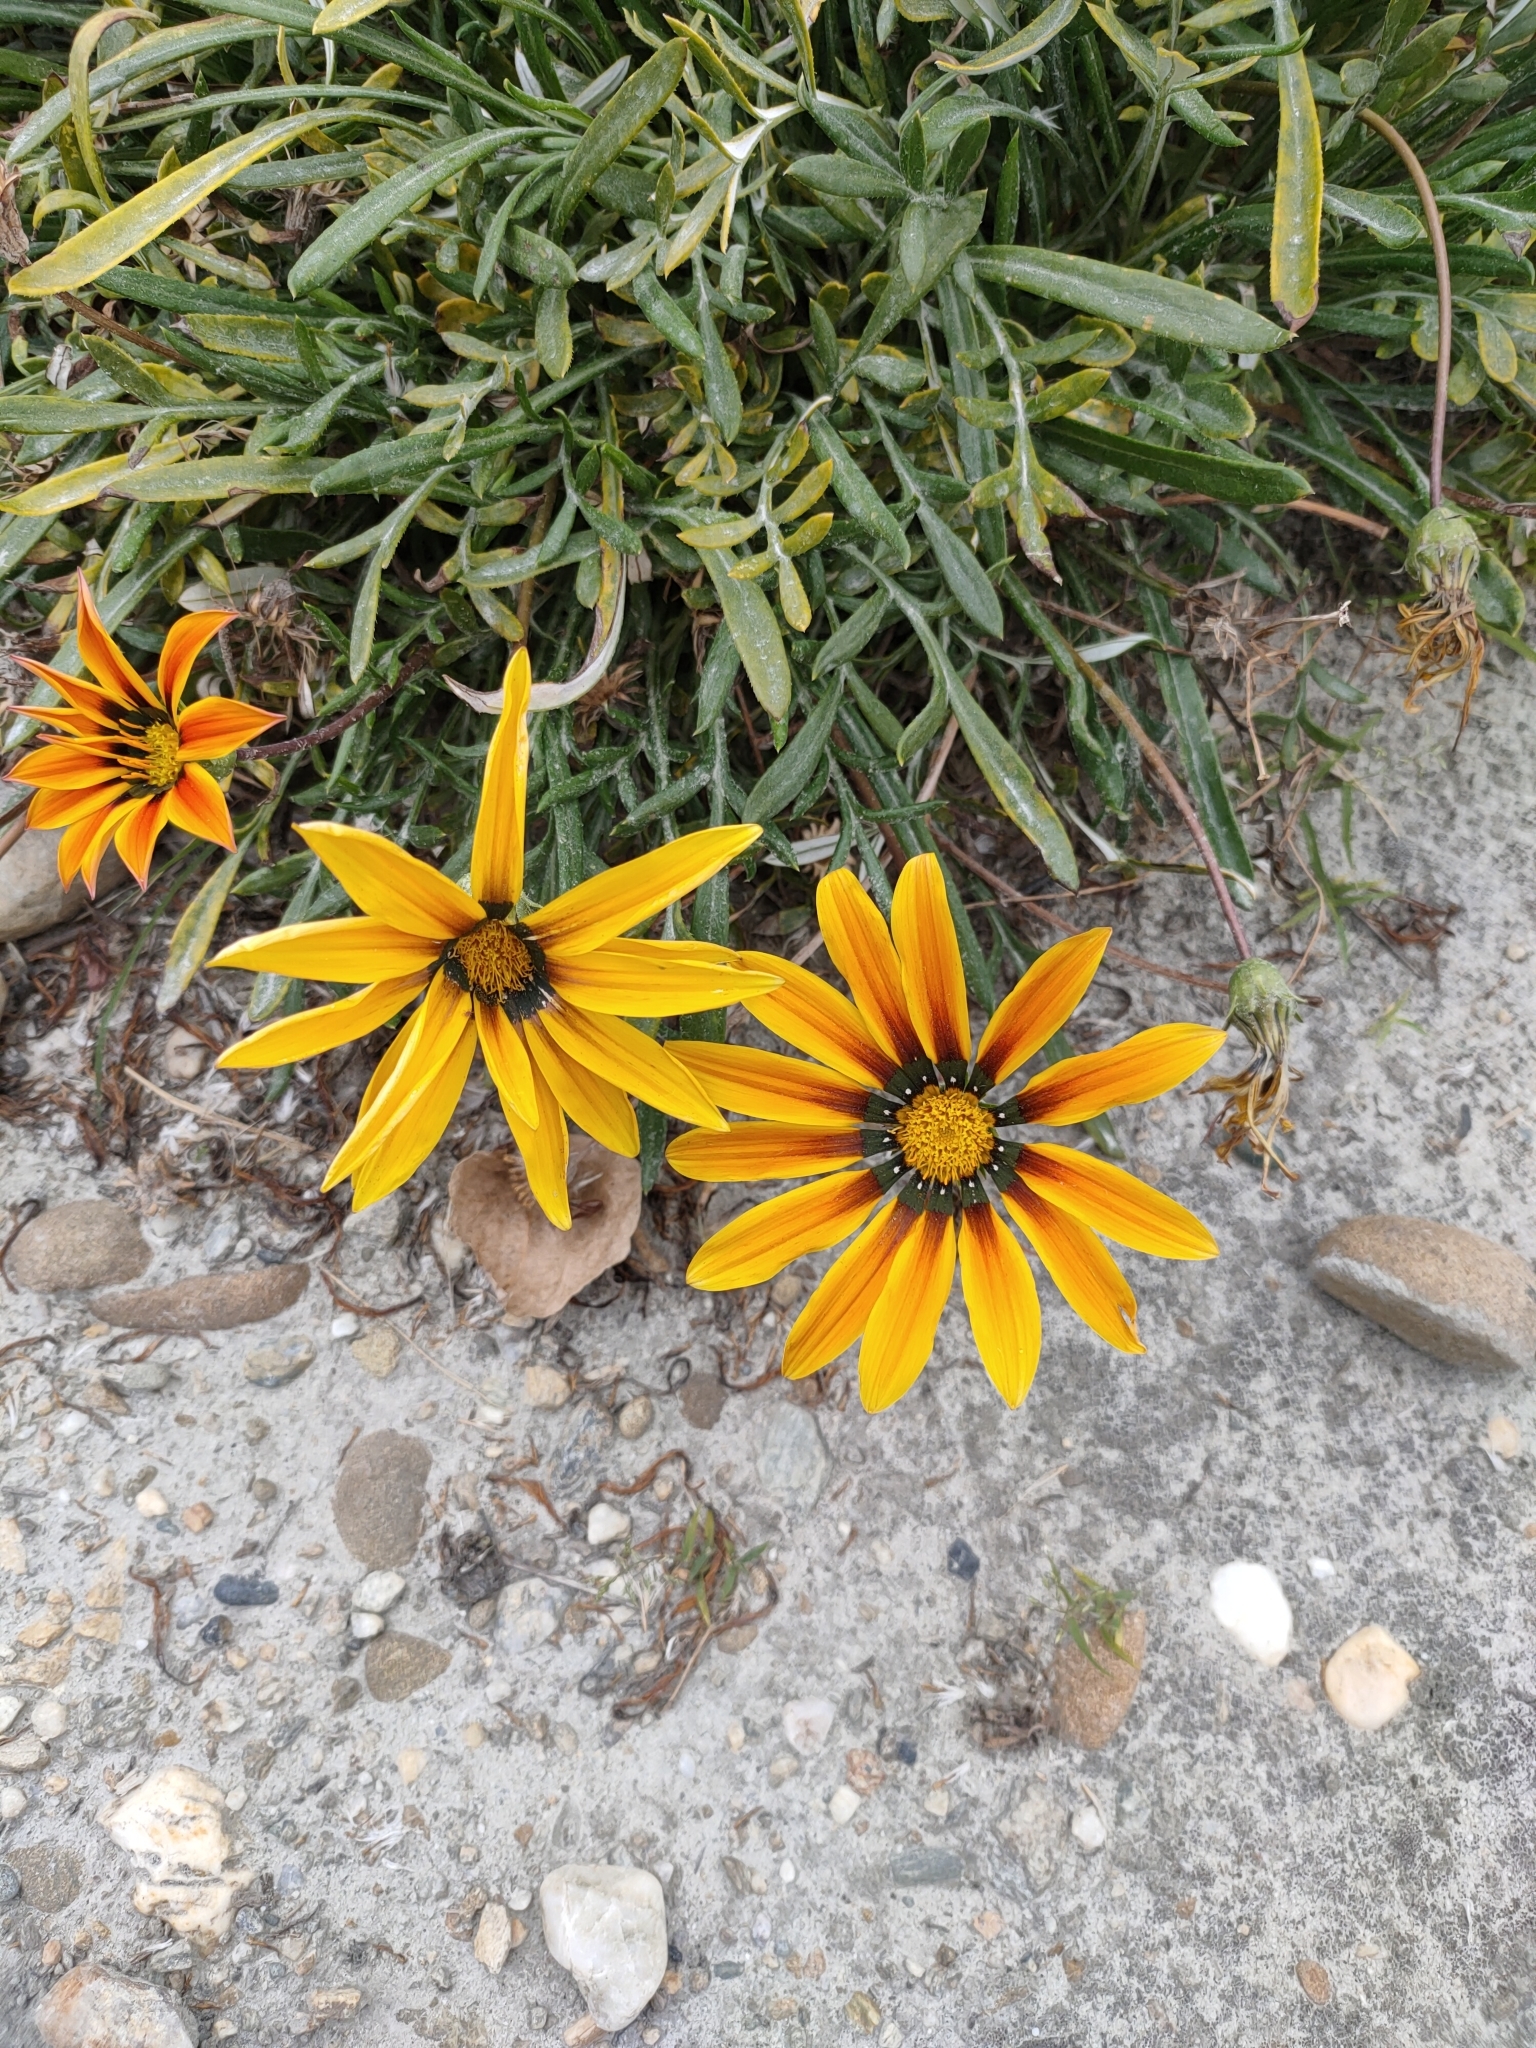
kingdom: Plantae
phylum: Tracheophyta
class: Magnoliopsida
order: Asterales
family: Asteraceae
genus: Gazania
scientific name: Gazania splendens
